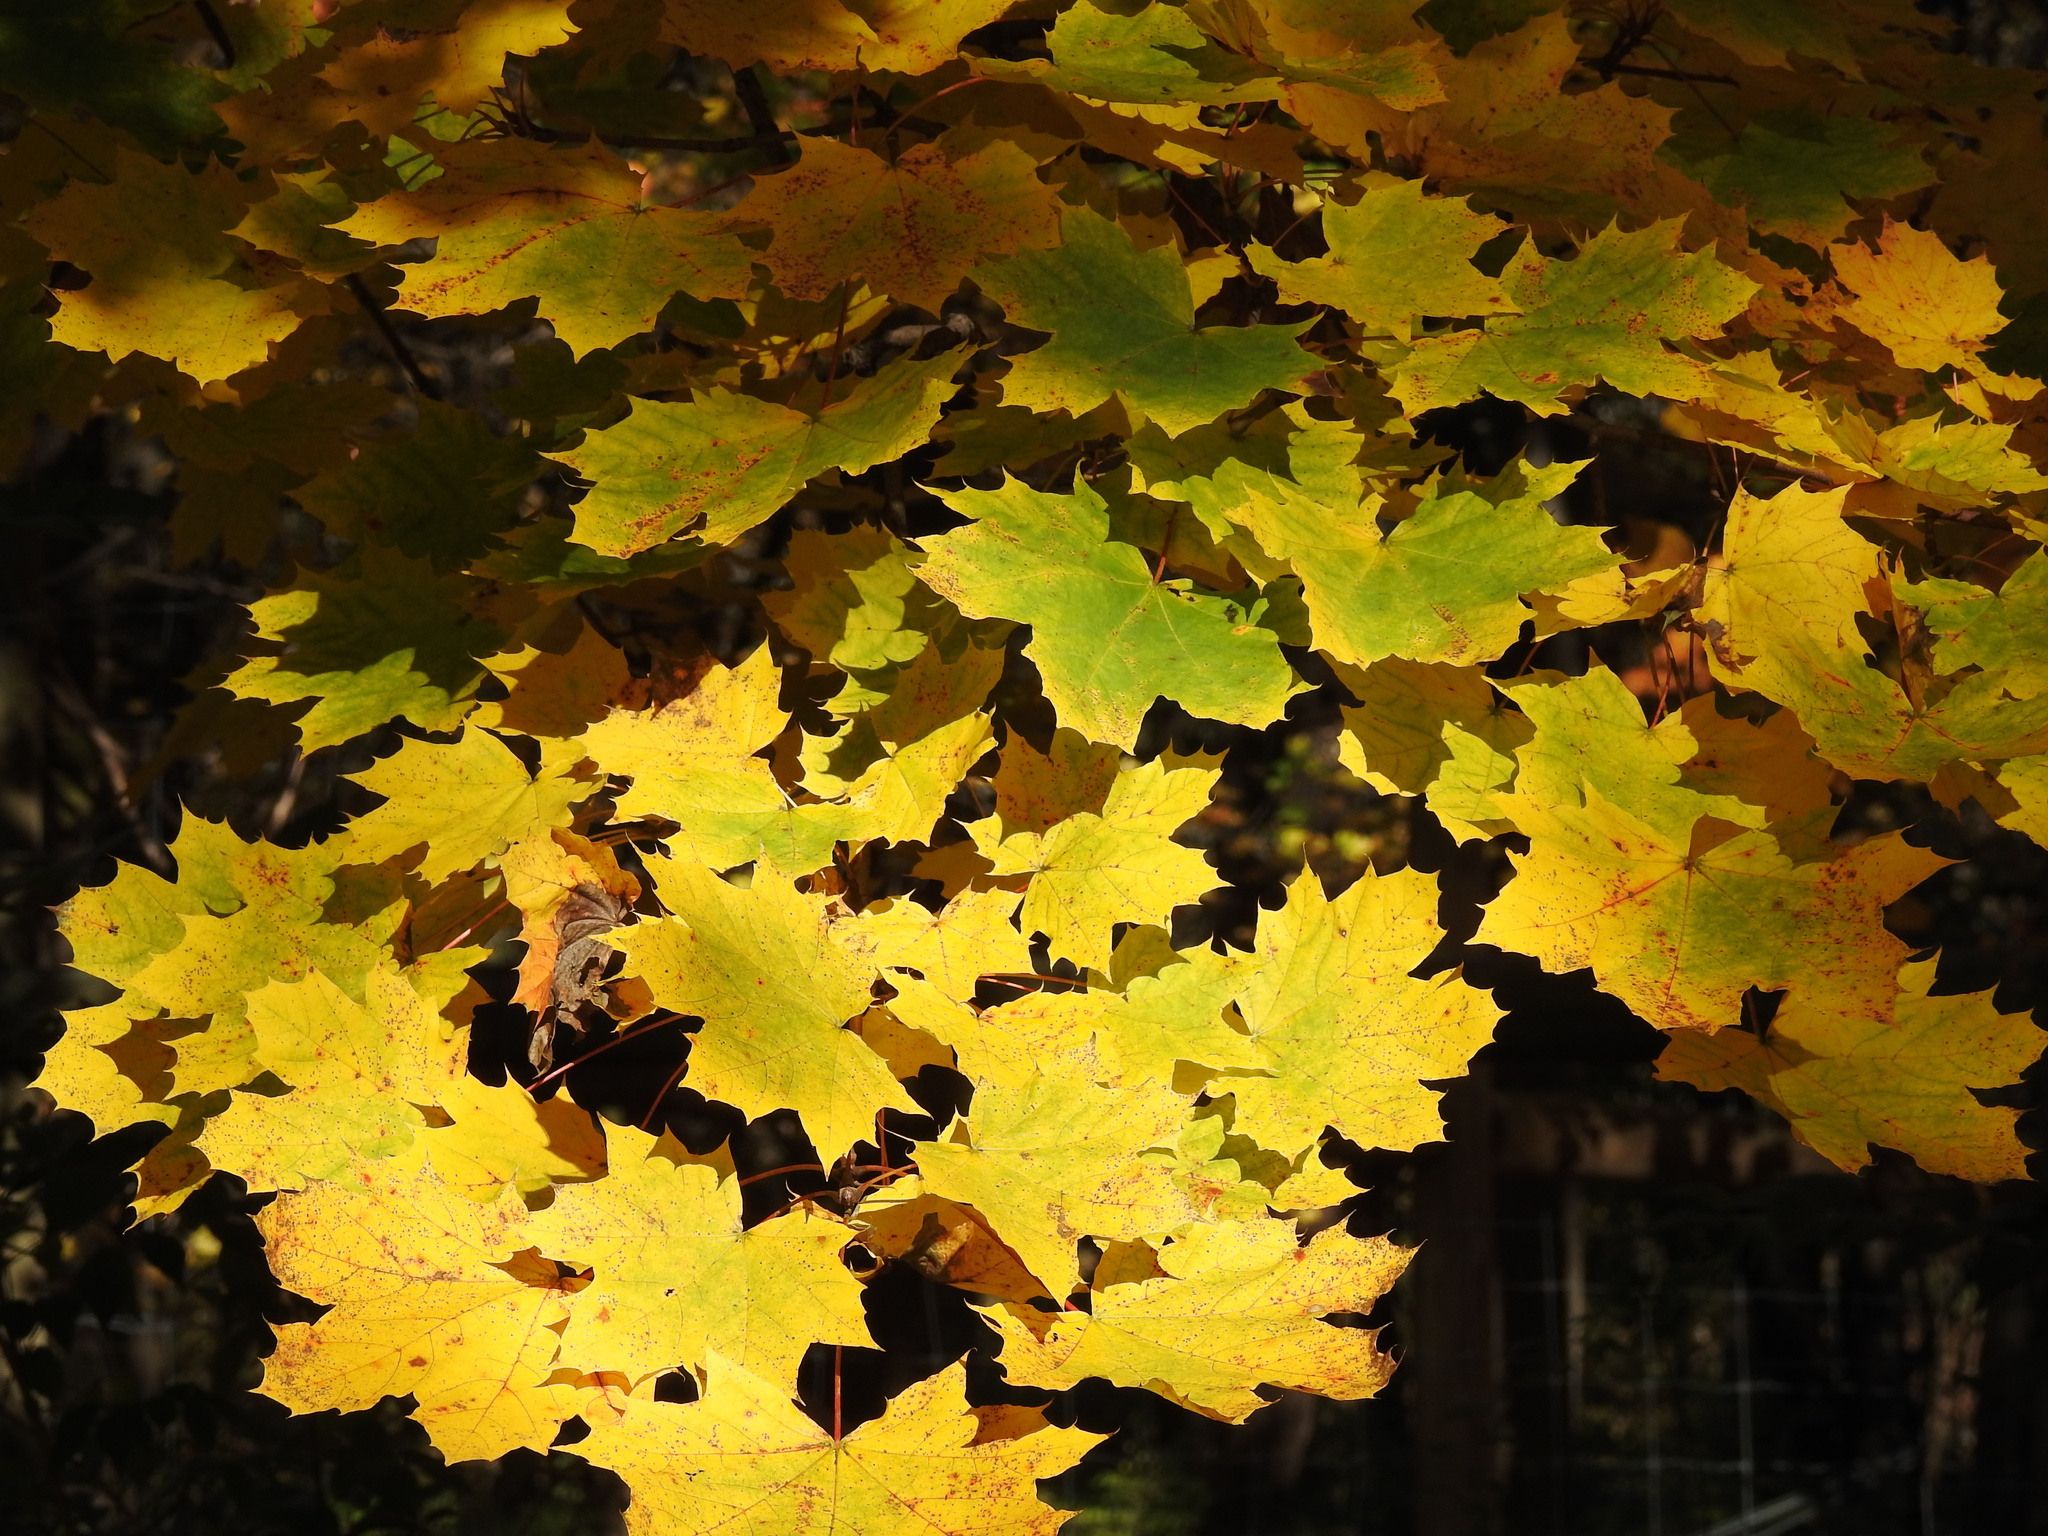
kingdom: Plantae
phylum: Tracheophyta
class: Magnoliopsida
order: Sapindales
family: Sapindaceae
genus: Acer
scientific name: Acer platanoides
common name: Norway maple
